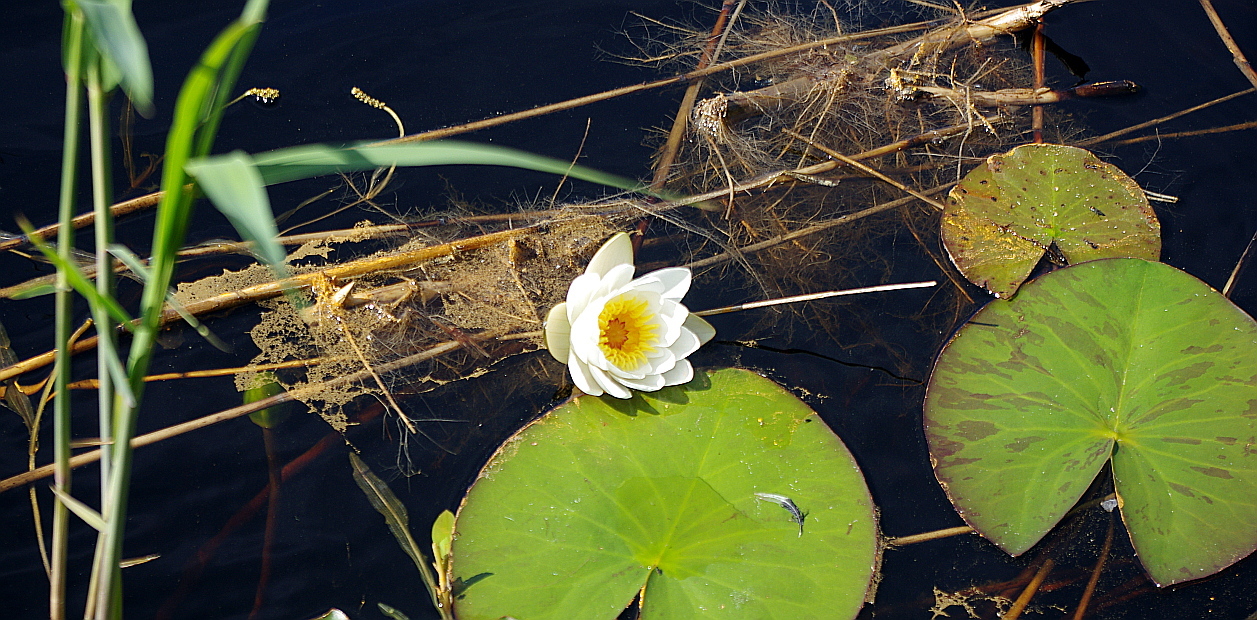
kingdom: Plantae
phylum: Tracheophyta
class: Magnoliopsida
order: Nymphaeales
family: Nymphaeaceae
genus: Nymphaea
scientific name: Nymphaea candida
